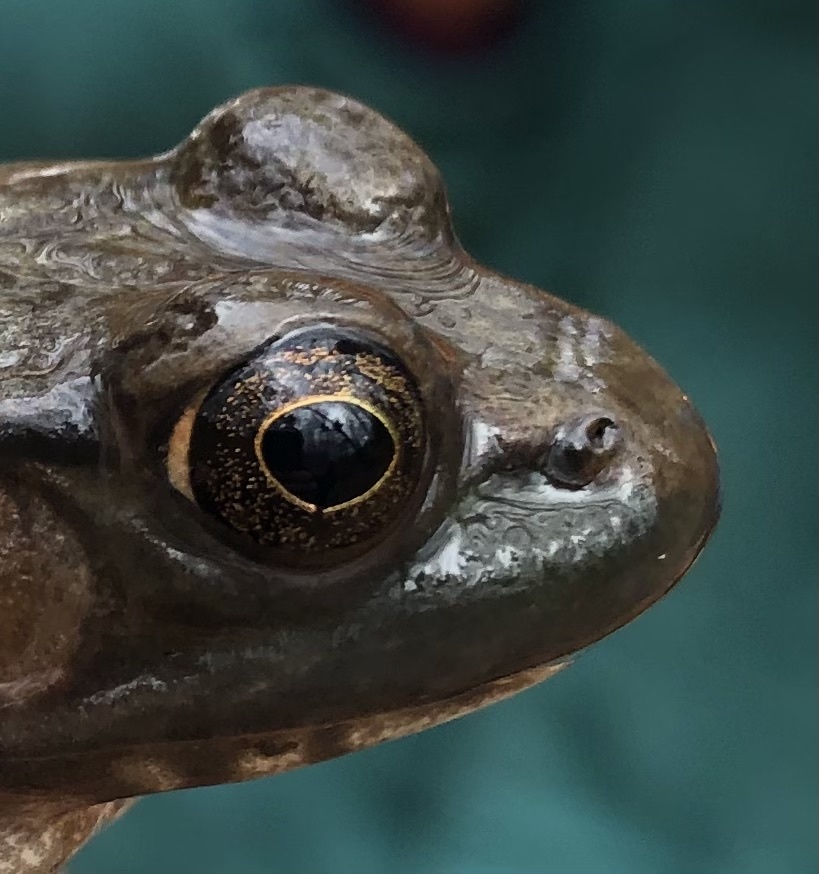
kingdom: Animalia
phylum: Chordata
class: Amphibia
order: Anura
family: Ranidae
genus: Lithobates
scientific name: Lithobates clamitans
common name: Green frog
